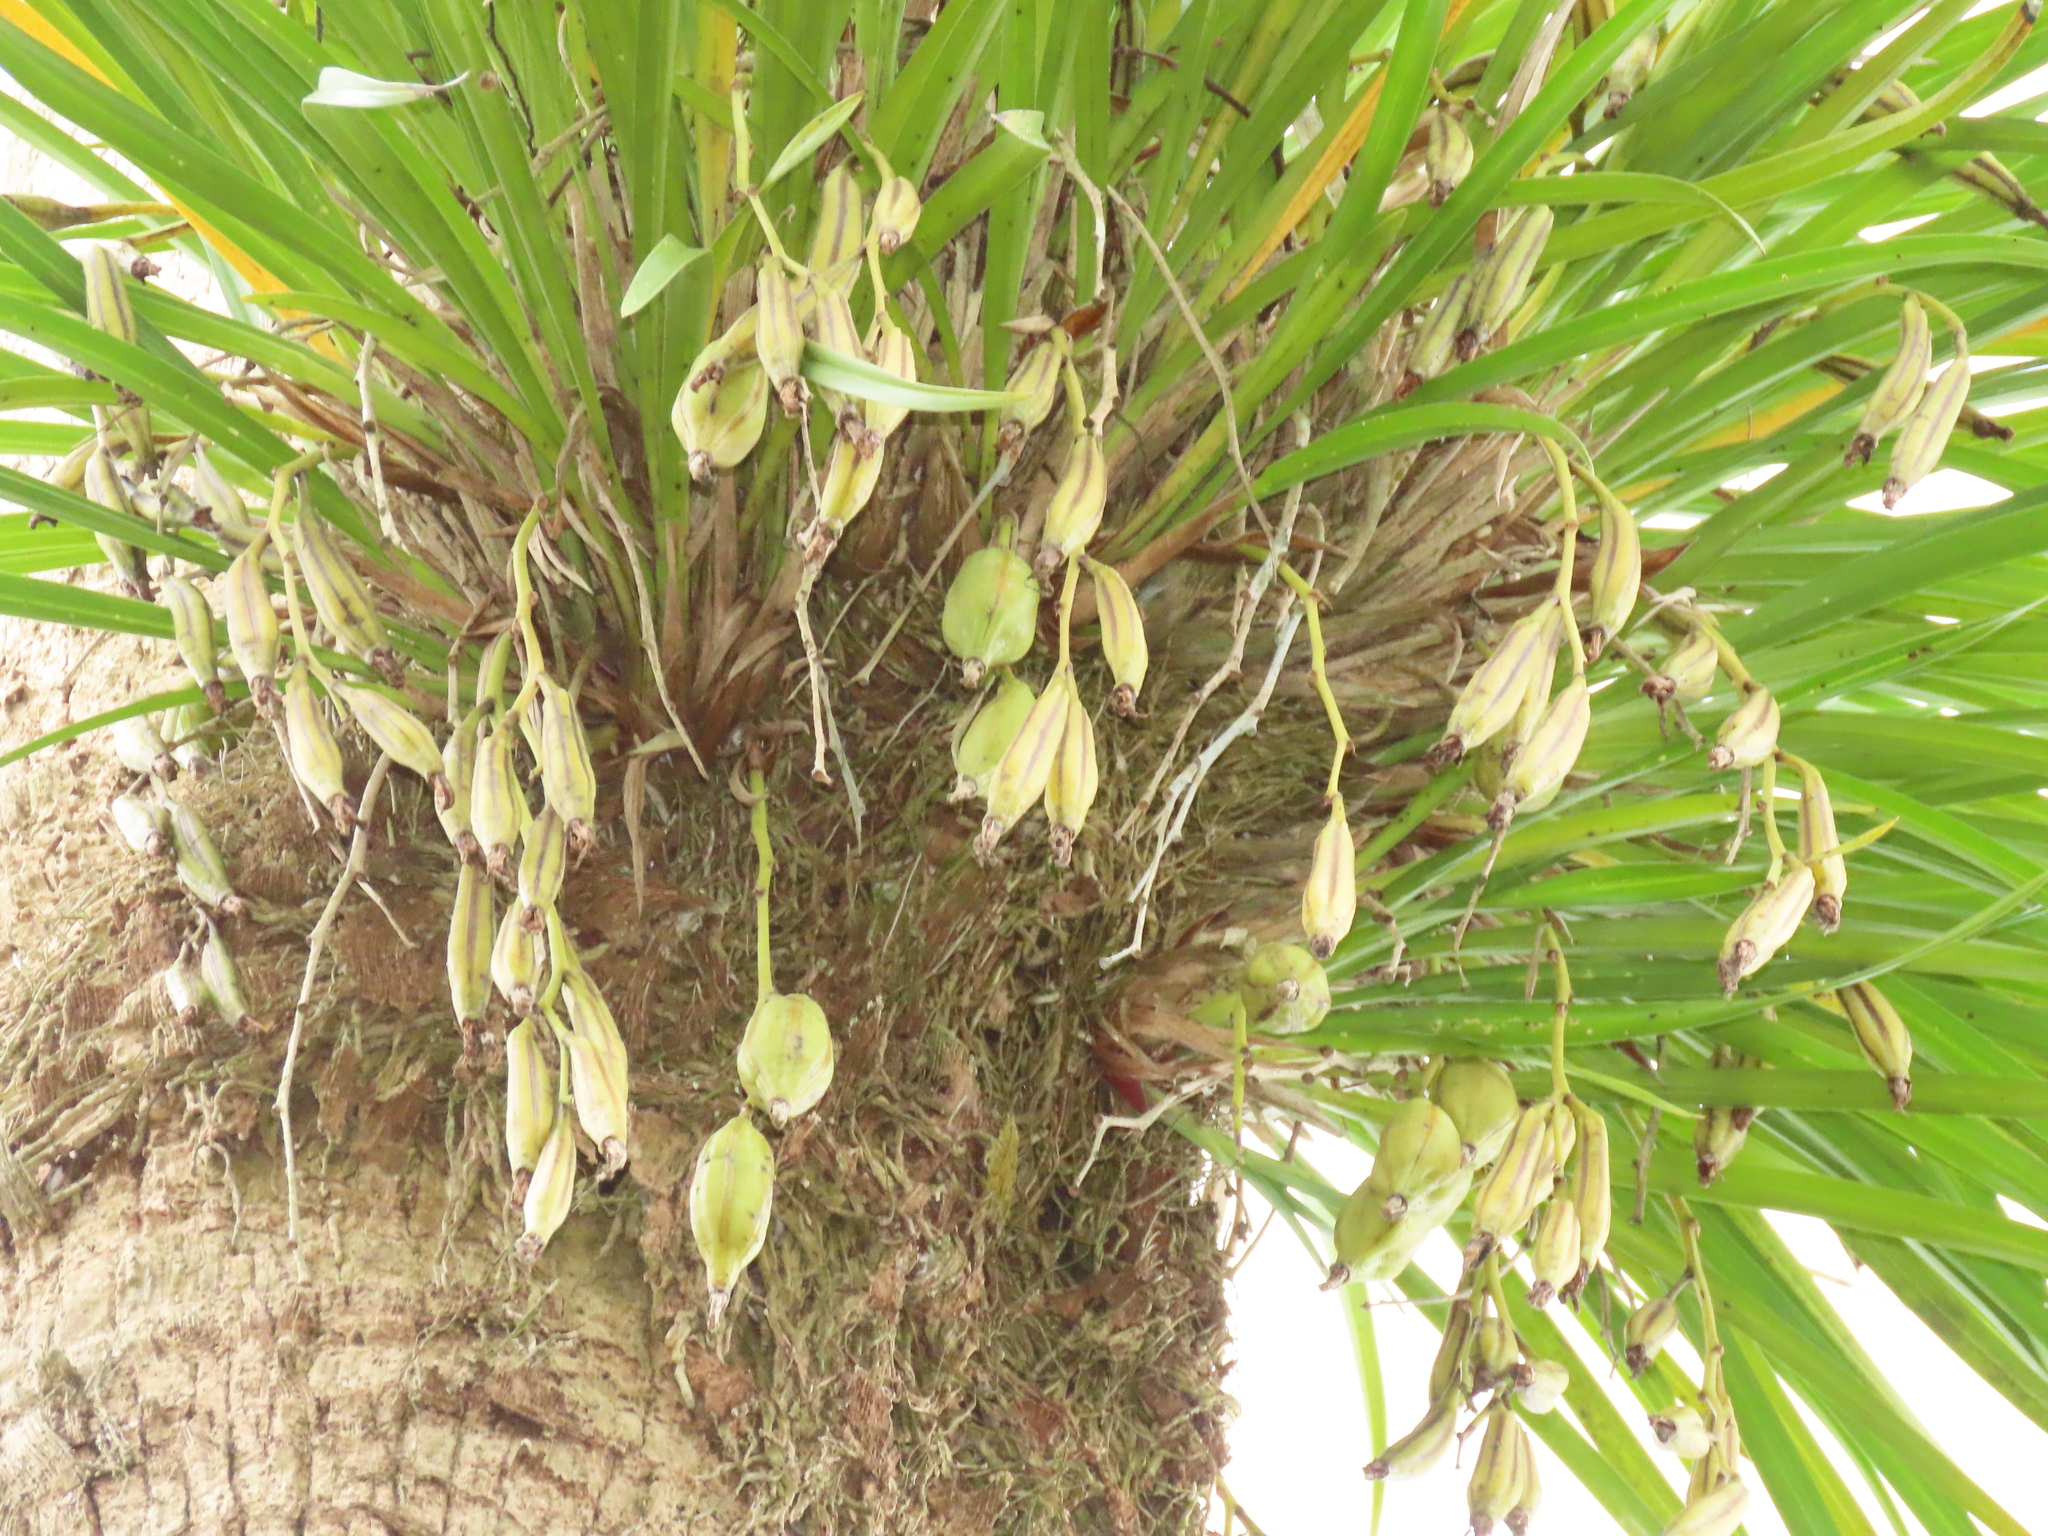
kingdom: Plantae
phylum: Tracheophyta
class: Liliopsida
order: Asparagales
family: Orchidaceae
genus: Cymbidium
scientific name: Cymbidium dayanum
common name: Orchid
